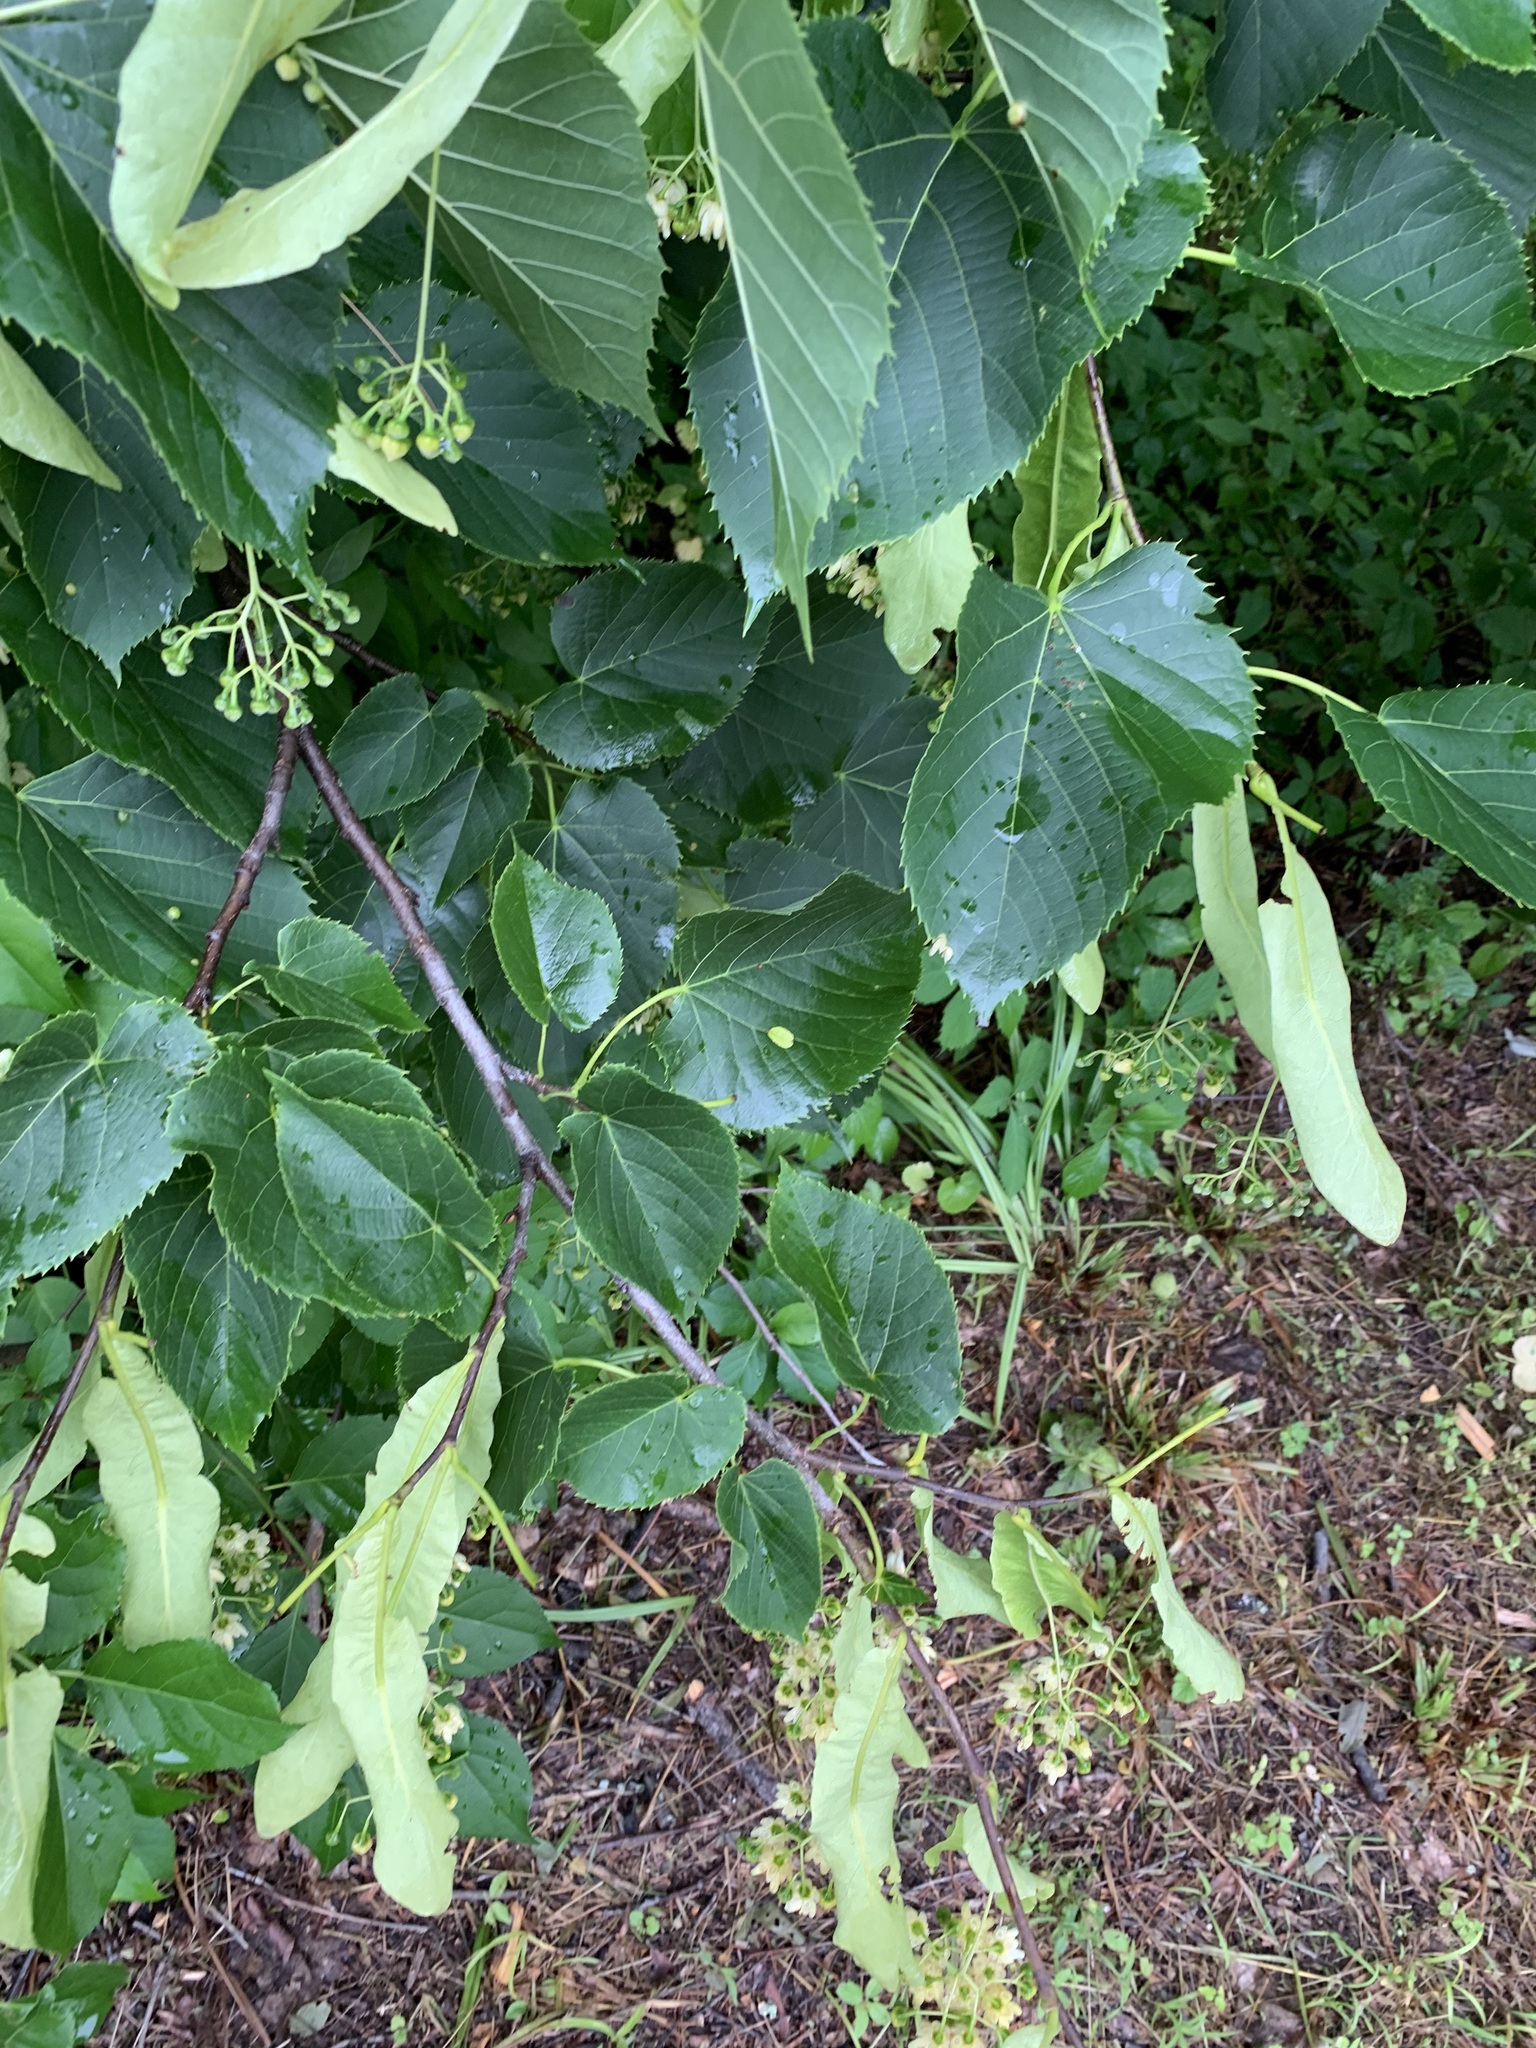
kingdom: Plantae
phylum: Tracheophyta
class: Magnoliopsida
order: Malvales
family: Malvaceae
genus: Tilia
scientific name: Tilia americana
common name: Basswood
